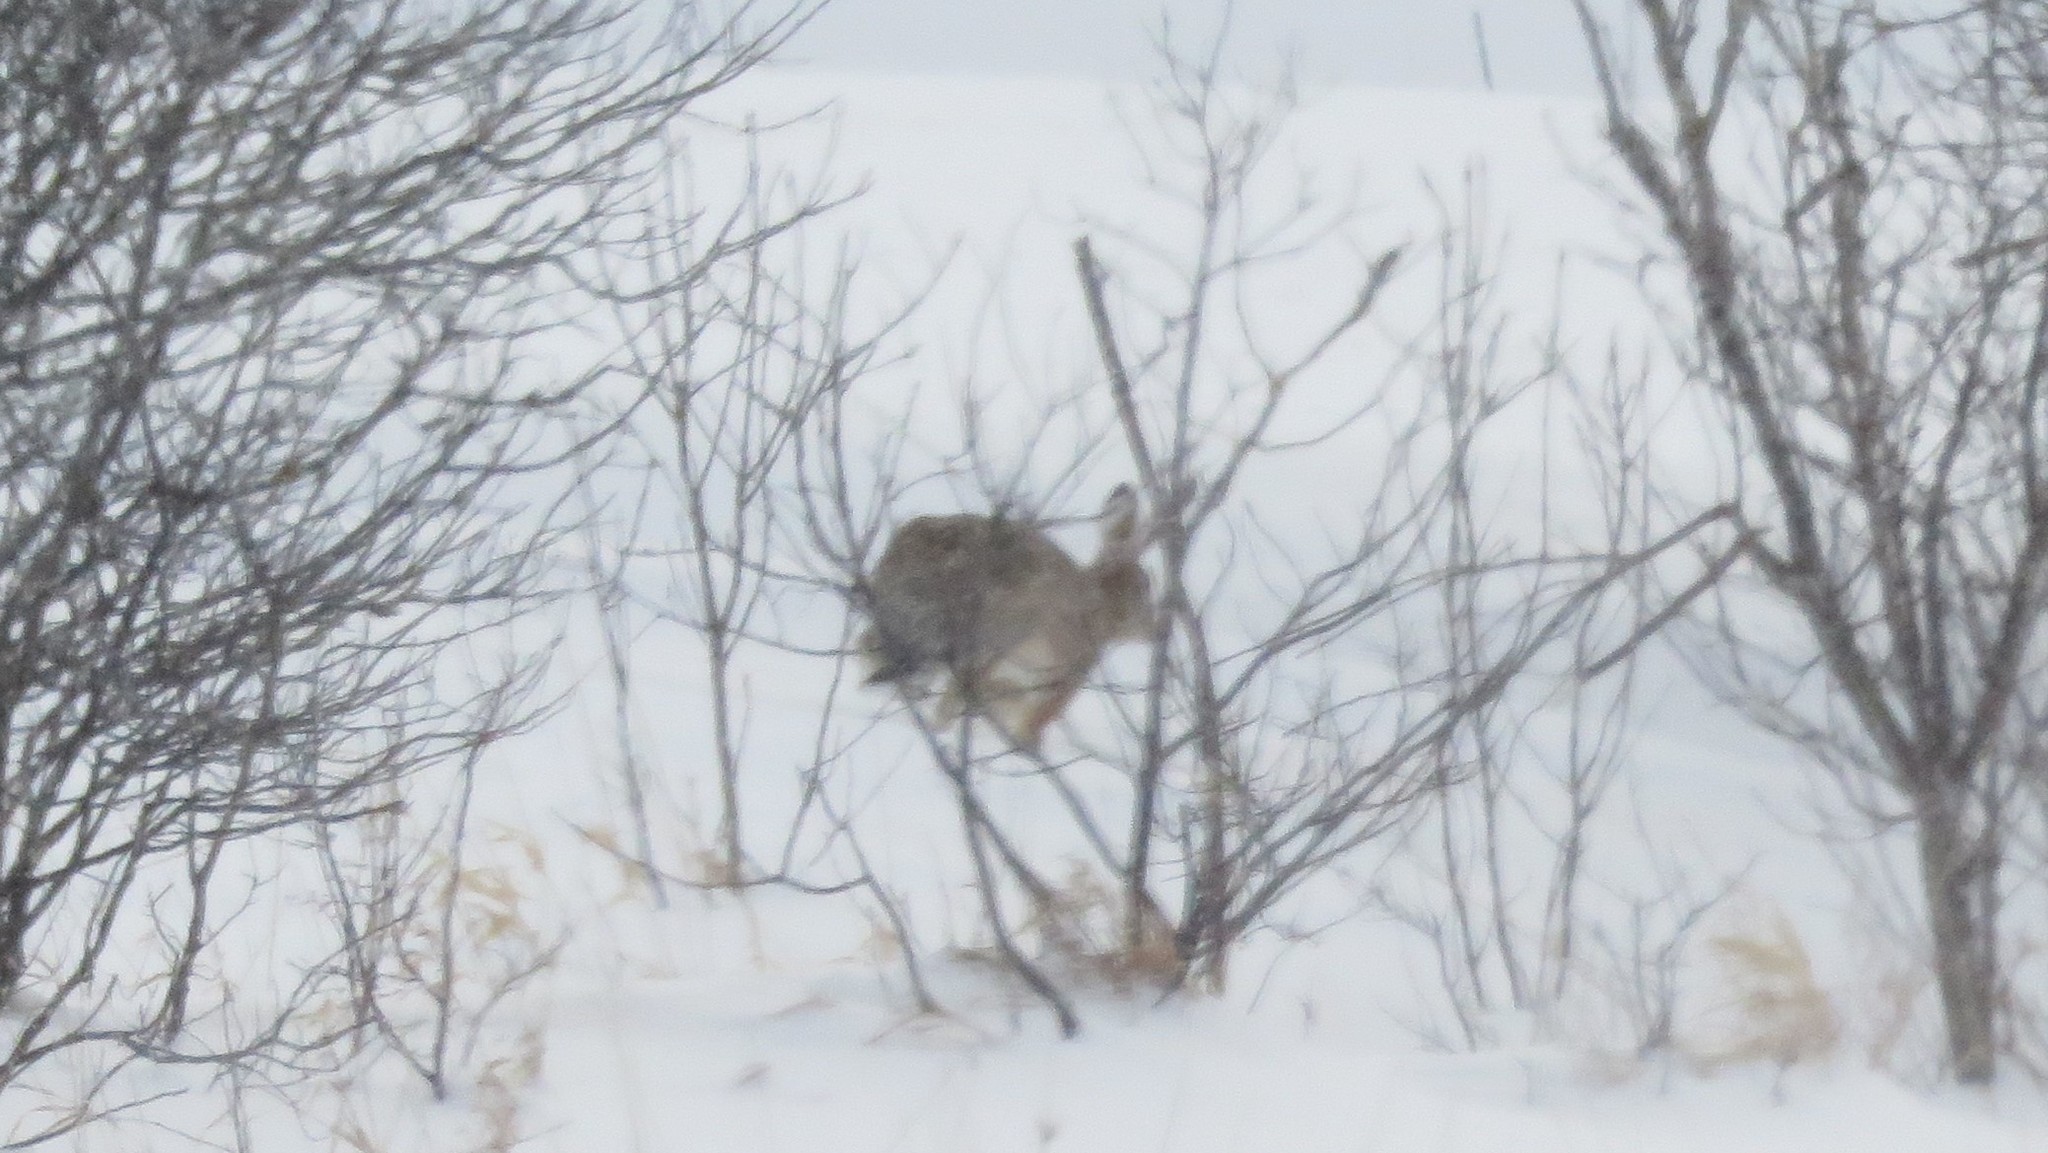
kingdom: Animalia
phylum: Chordata
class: Mammalia
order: Lagomorpha
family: Leporidae
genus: Lepus
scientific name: Lepus europaeus
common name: European hare
